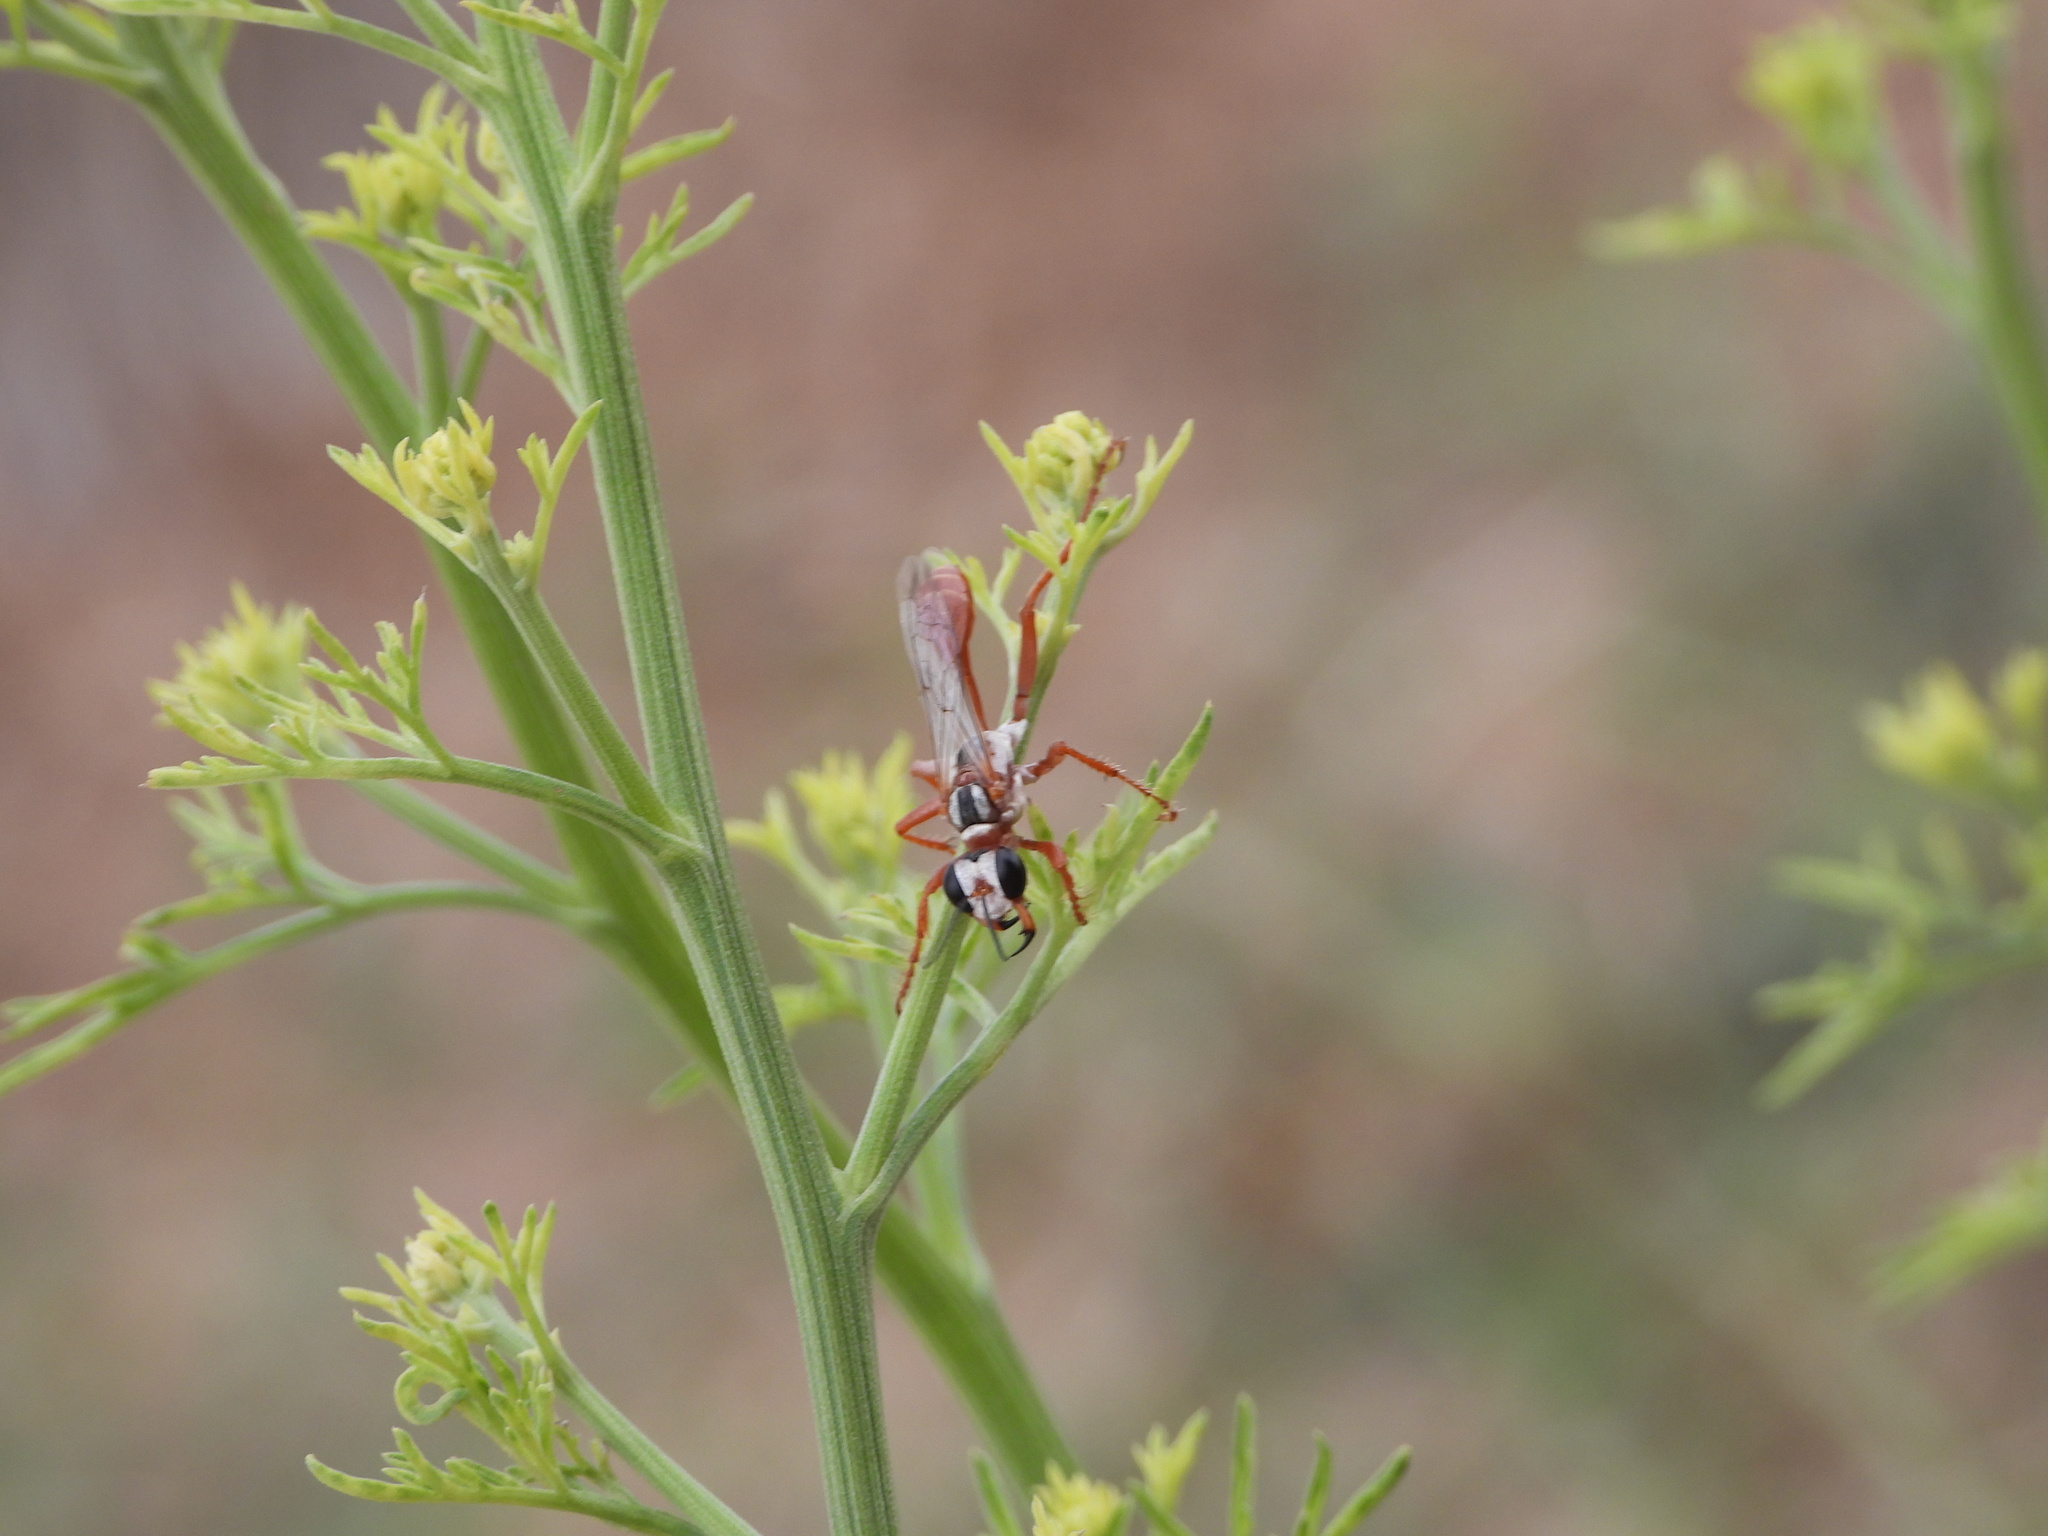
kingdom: Animalia
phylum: Arthropoda
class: Insecta
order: Hymenoptera
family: Sphecidae
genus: Prionyx
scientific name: Prionyx foxi
